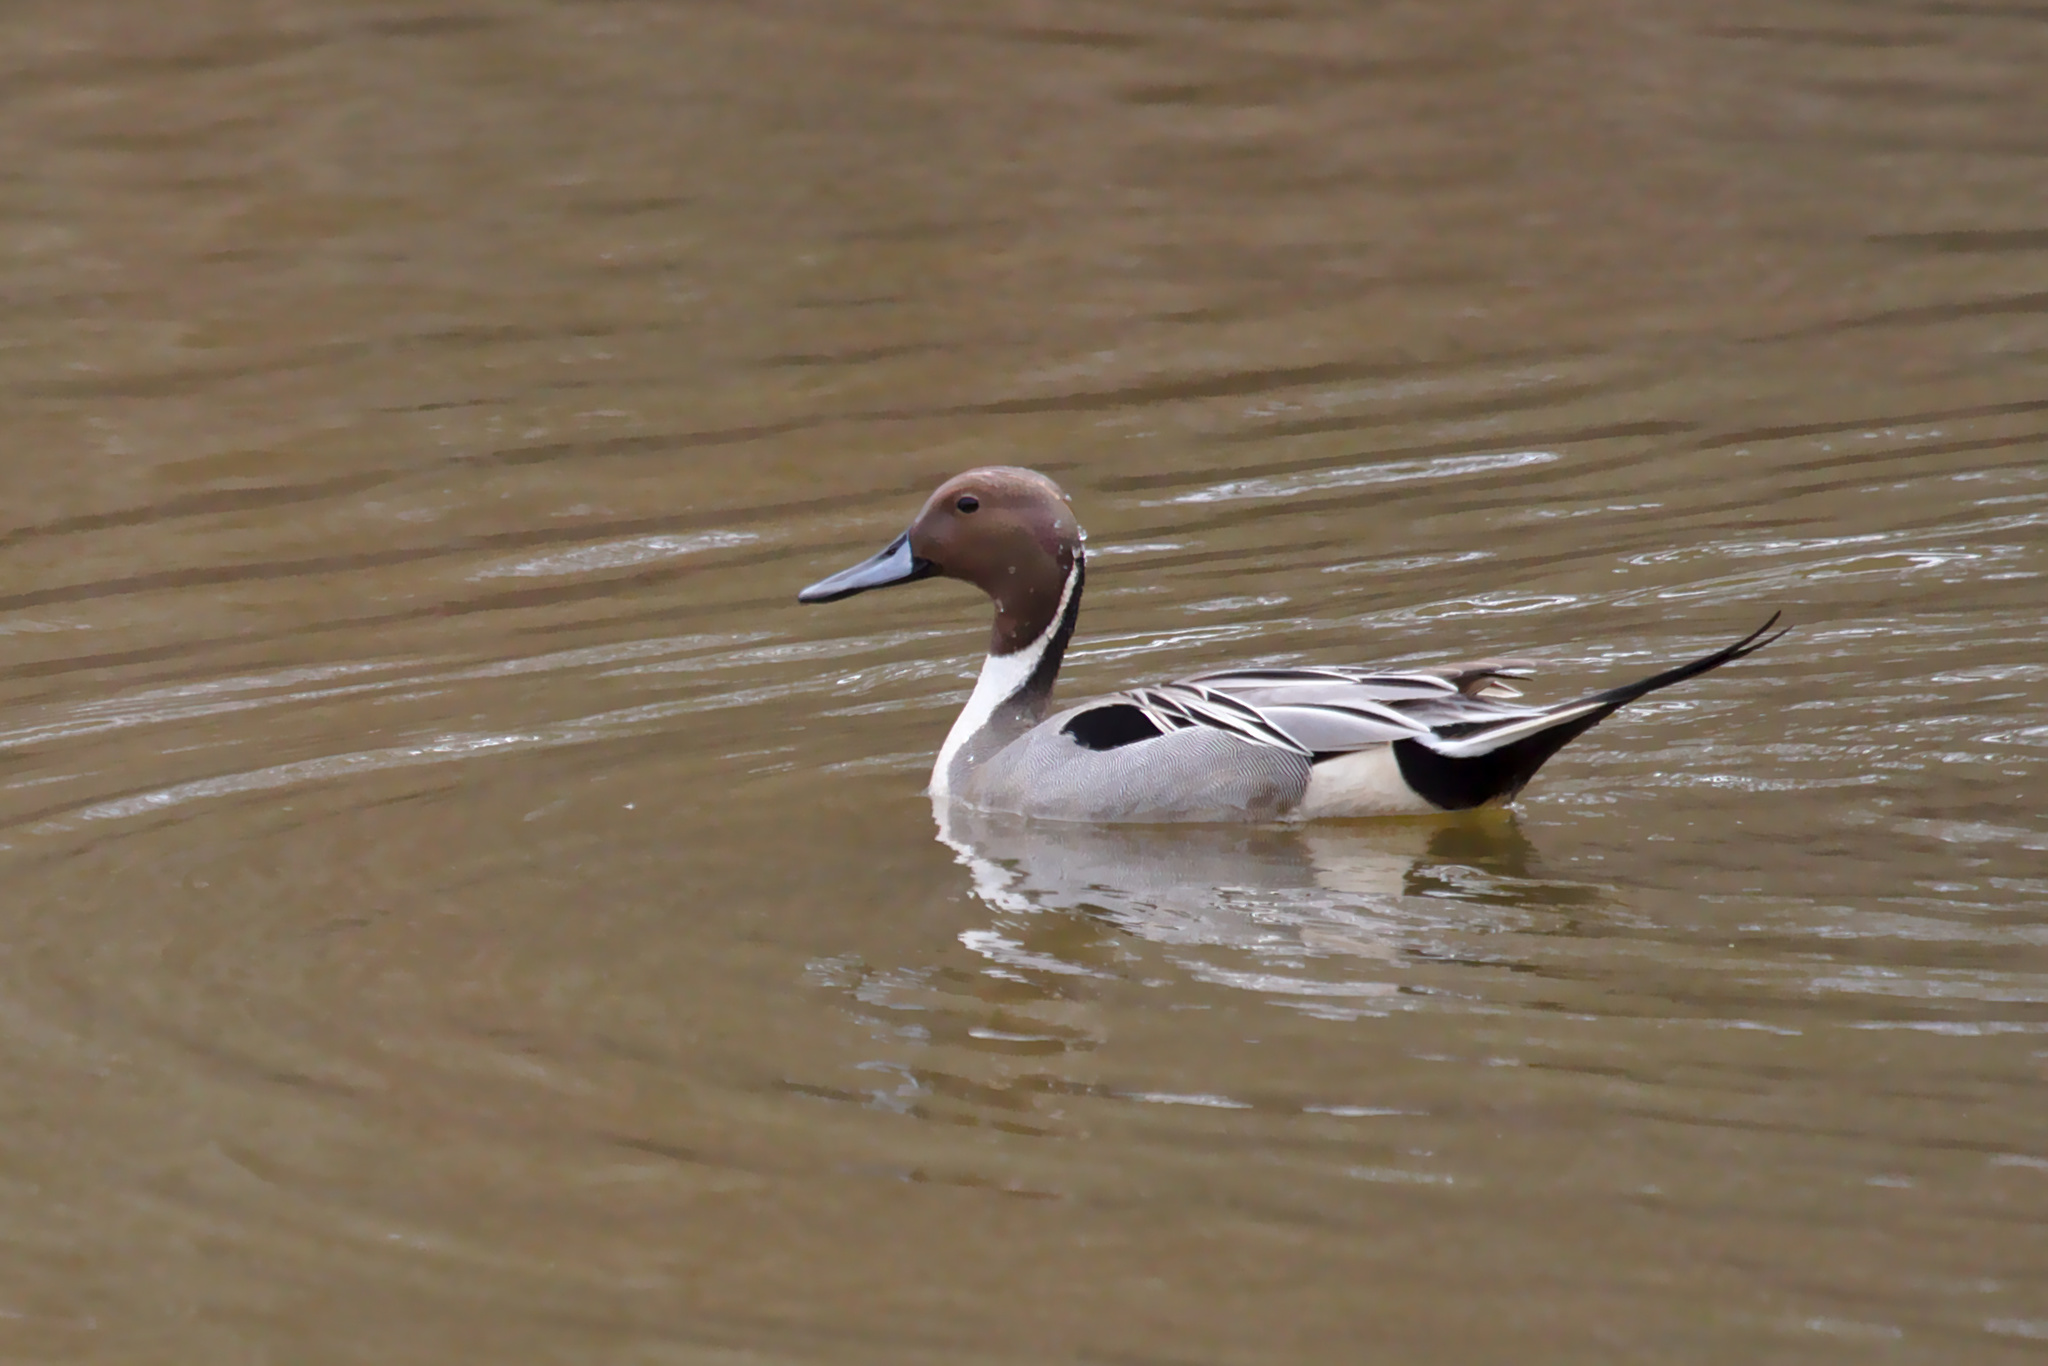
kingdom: Animalia
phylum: Chordata
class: Aves
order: Anseriformes
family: Anatidae
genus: Anas
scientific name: Anas acuta
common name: Northern pintail
